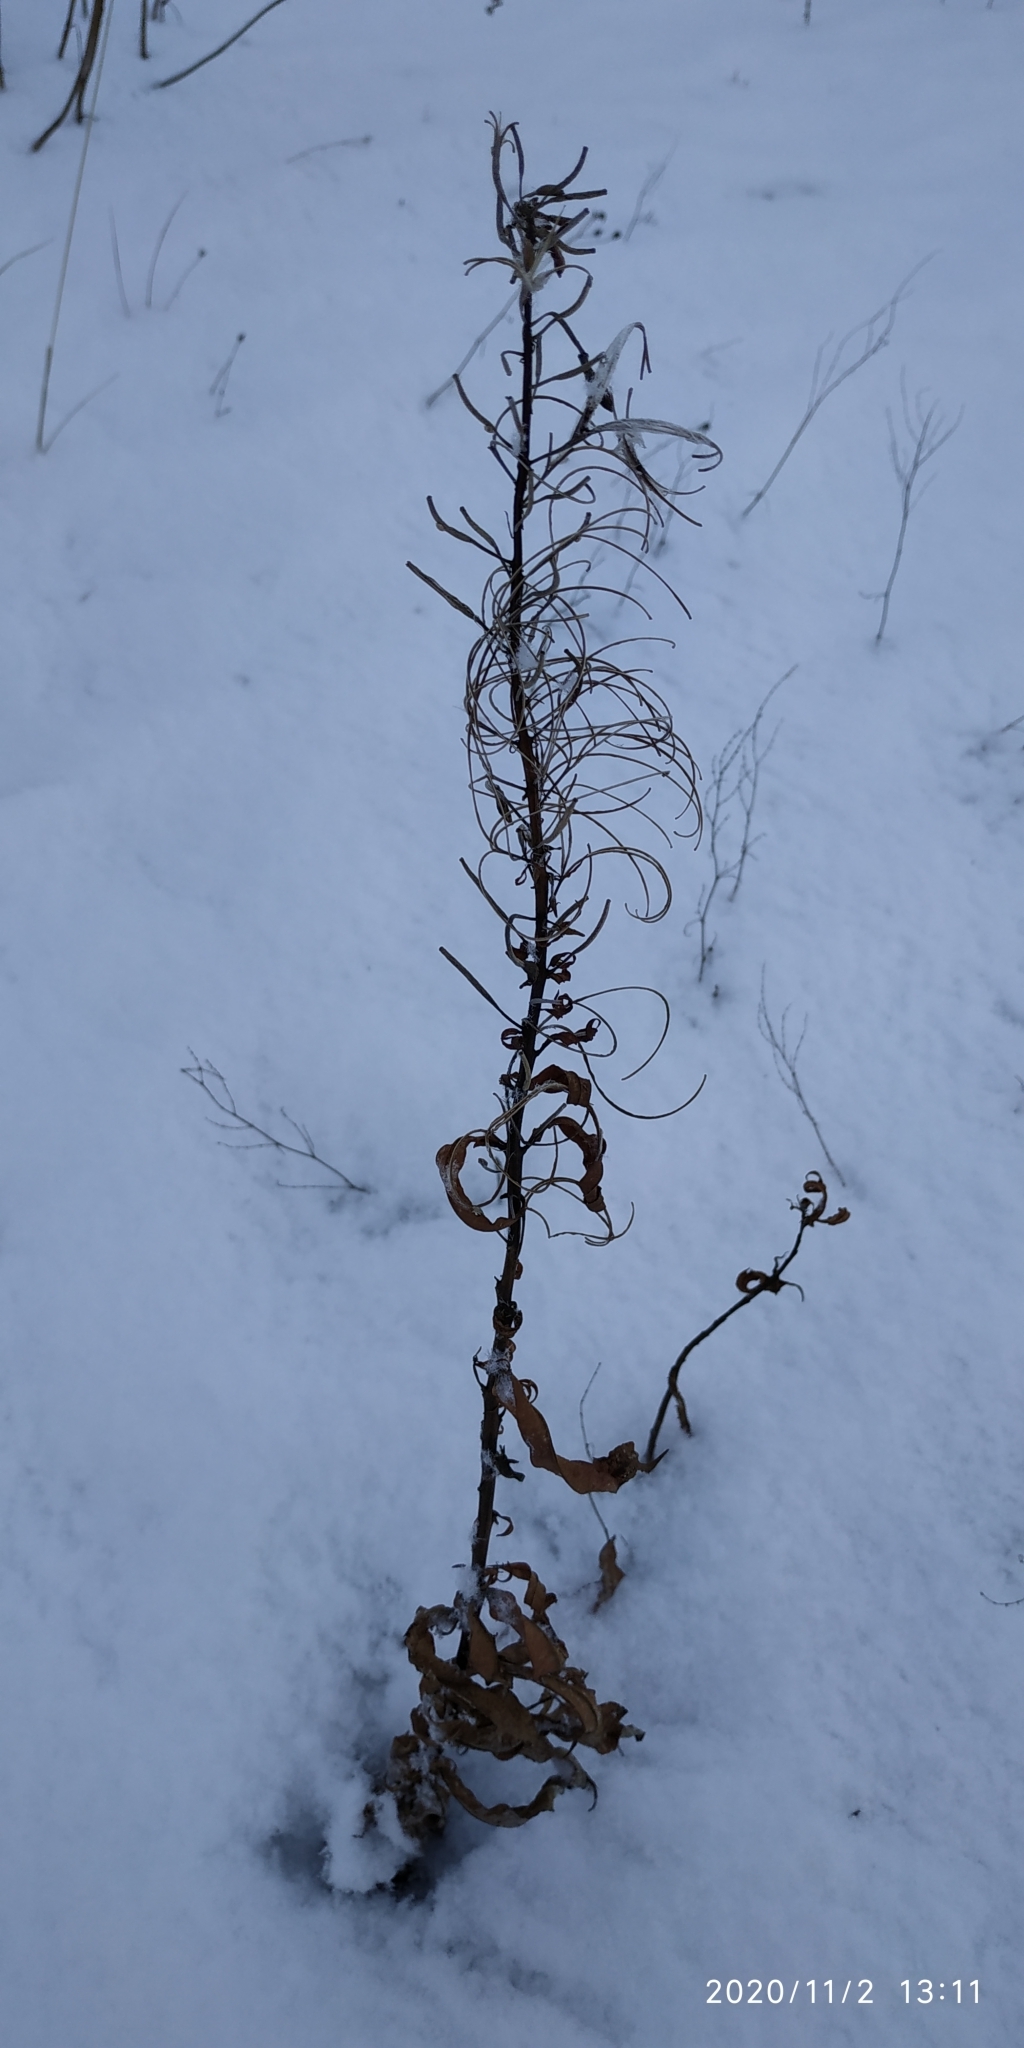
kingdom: Plantae
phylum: Tracheophyta
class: Magnoliopsida
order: Myrtales
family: Onagraceae
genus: Chamaenerion
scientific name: Chamaenerion angustifolium
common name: Fireweed
